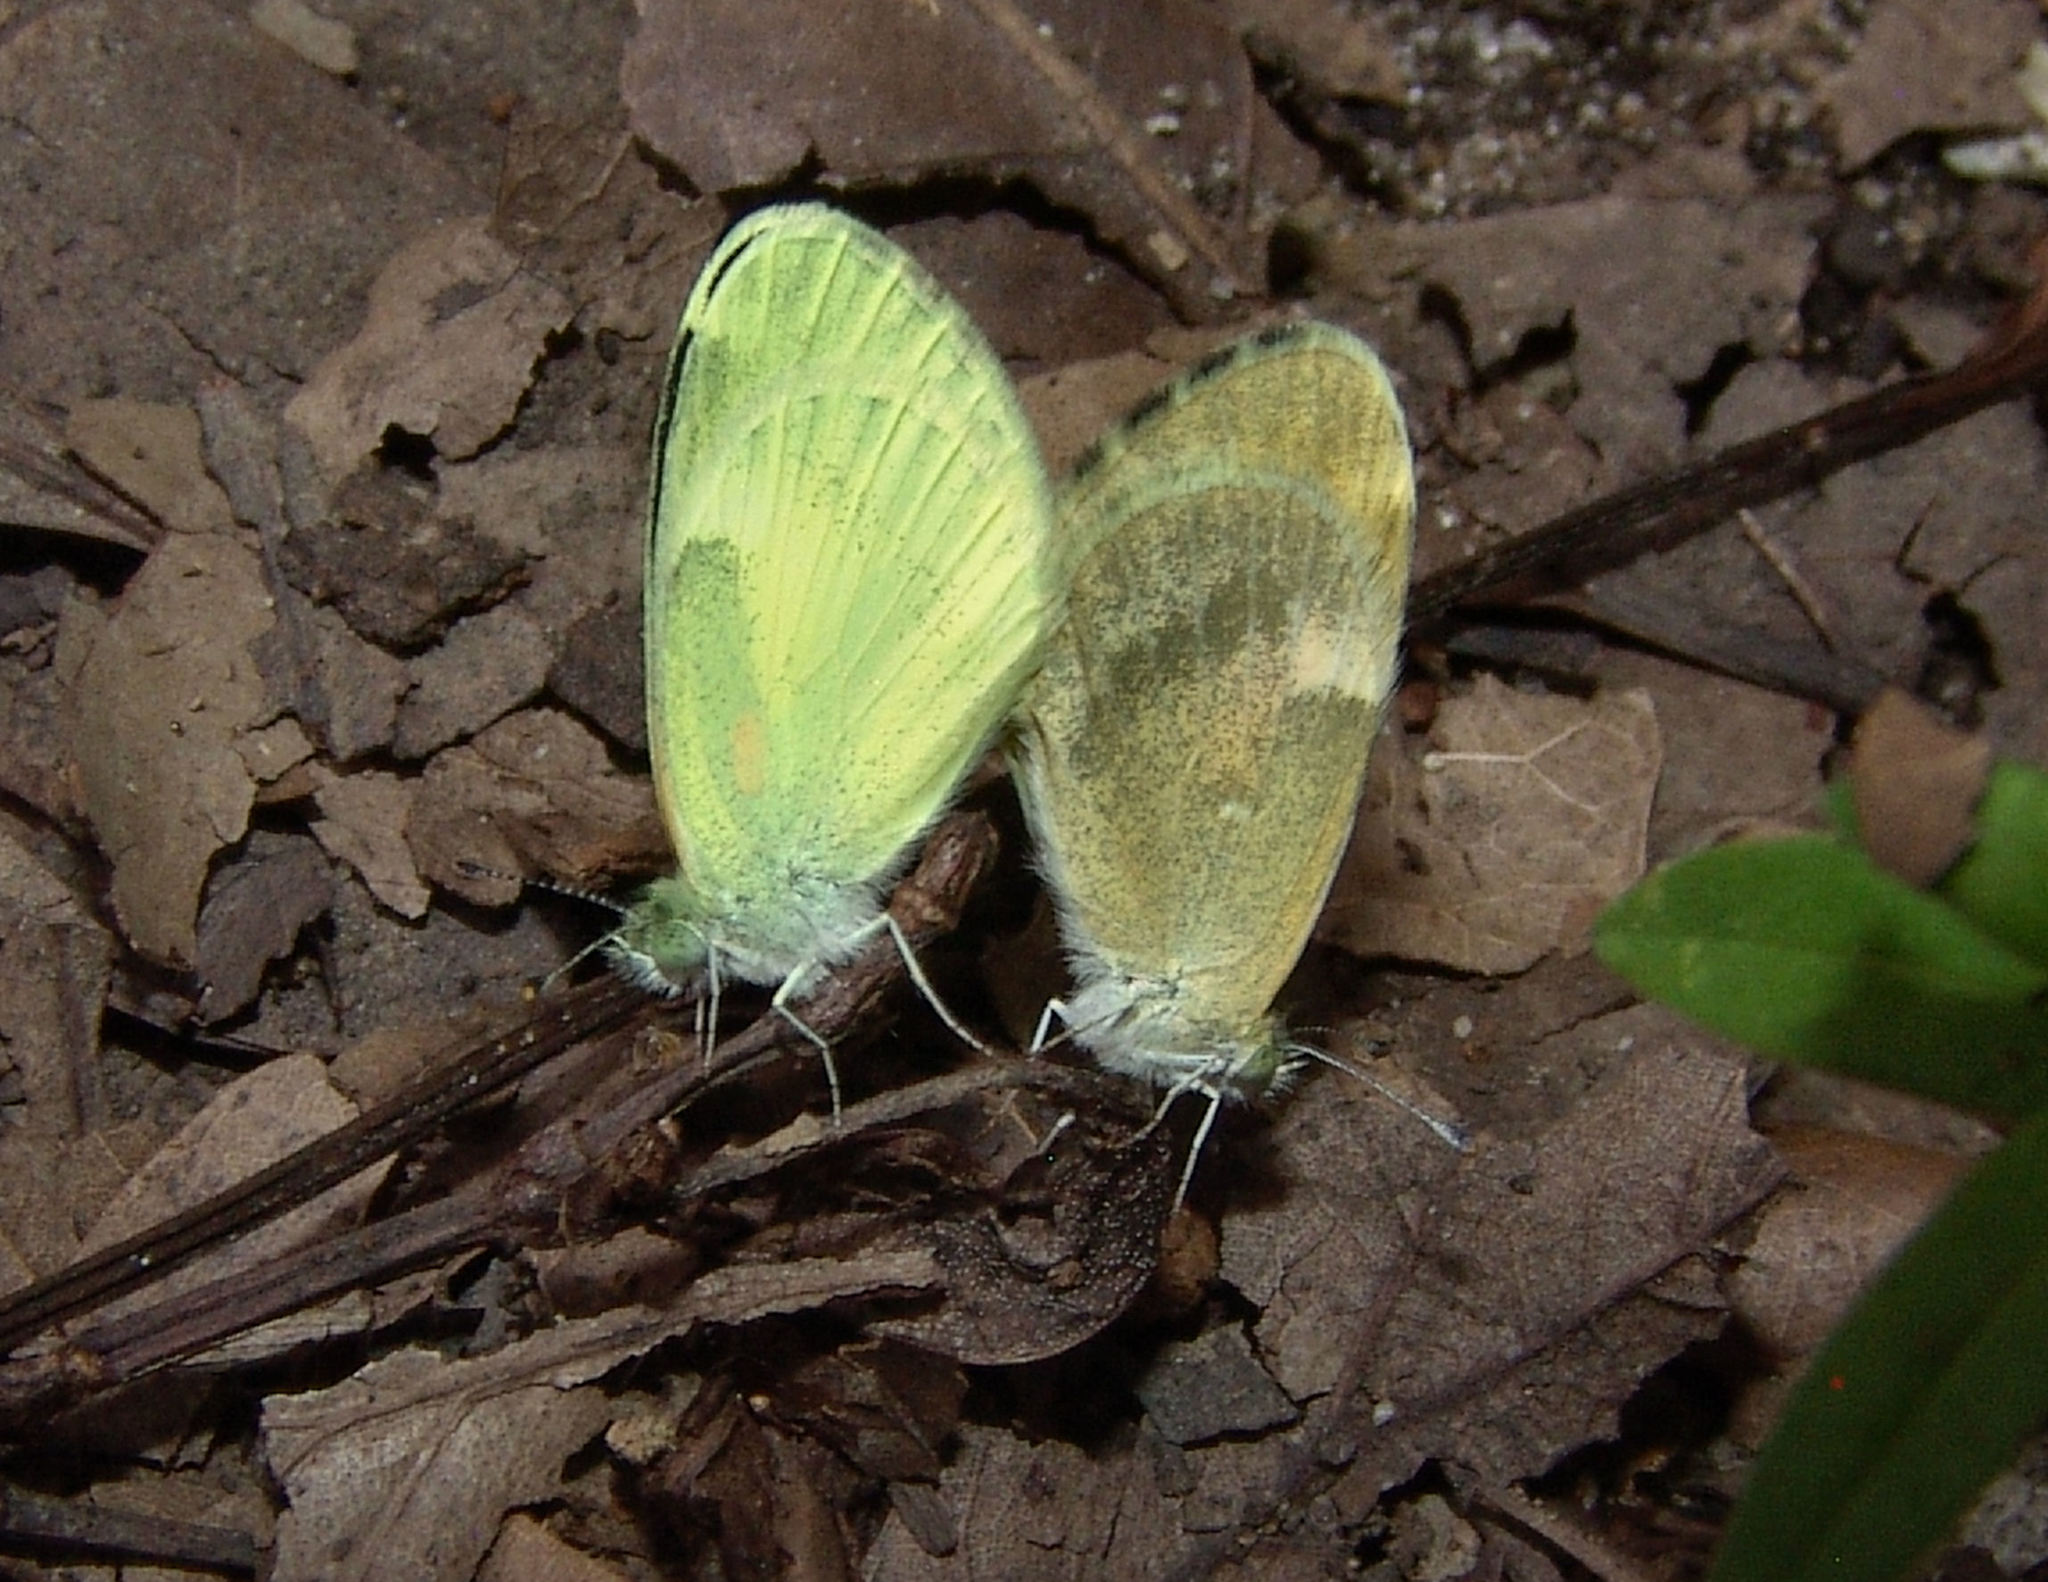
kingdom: Animalia
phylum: Arthropoda
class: Insecta
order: Lepidoptera
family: Pieridae
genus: Nathalis
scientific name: Nathalis iole
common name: Dainty sulphur
